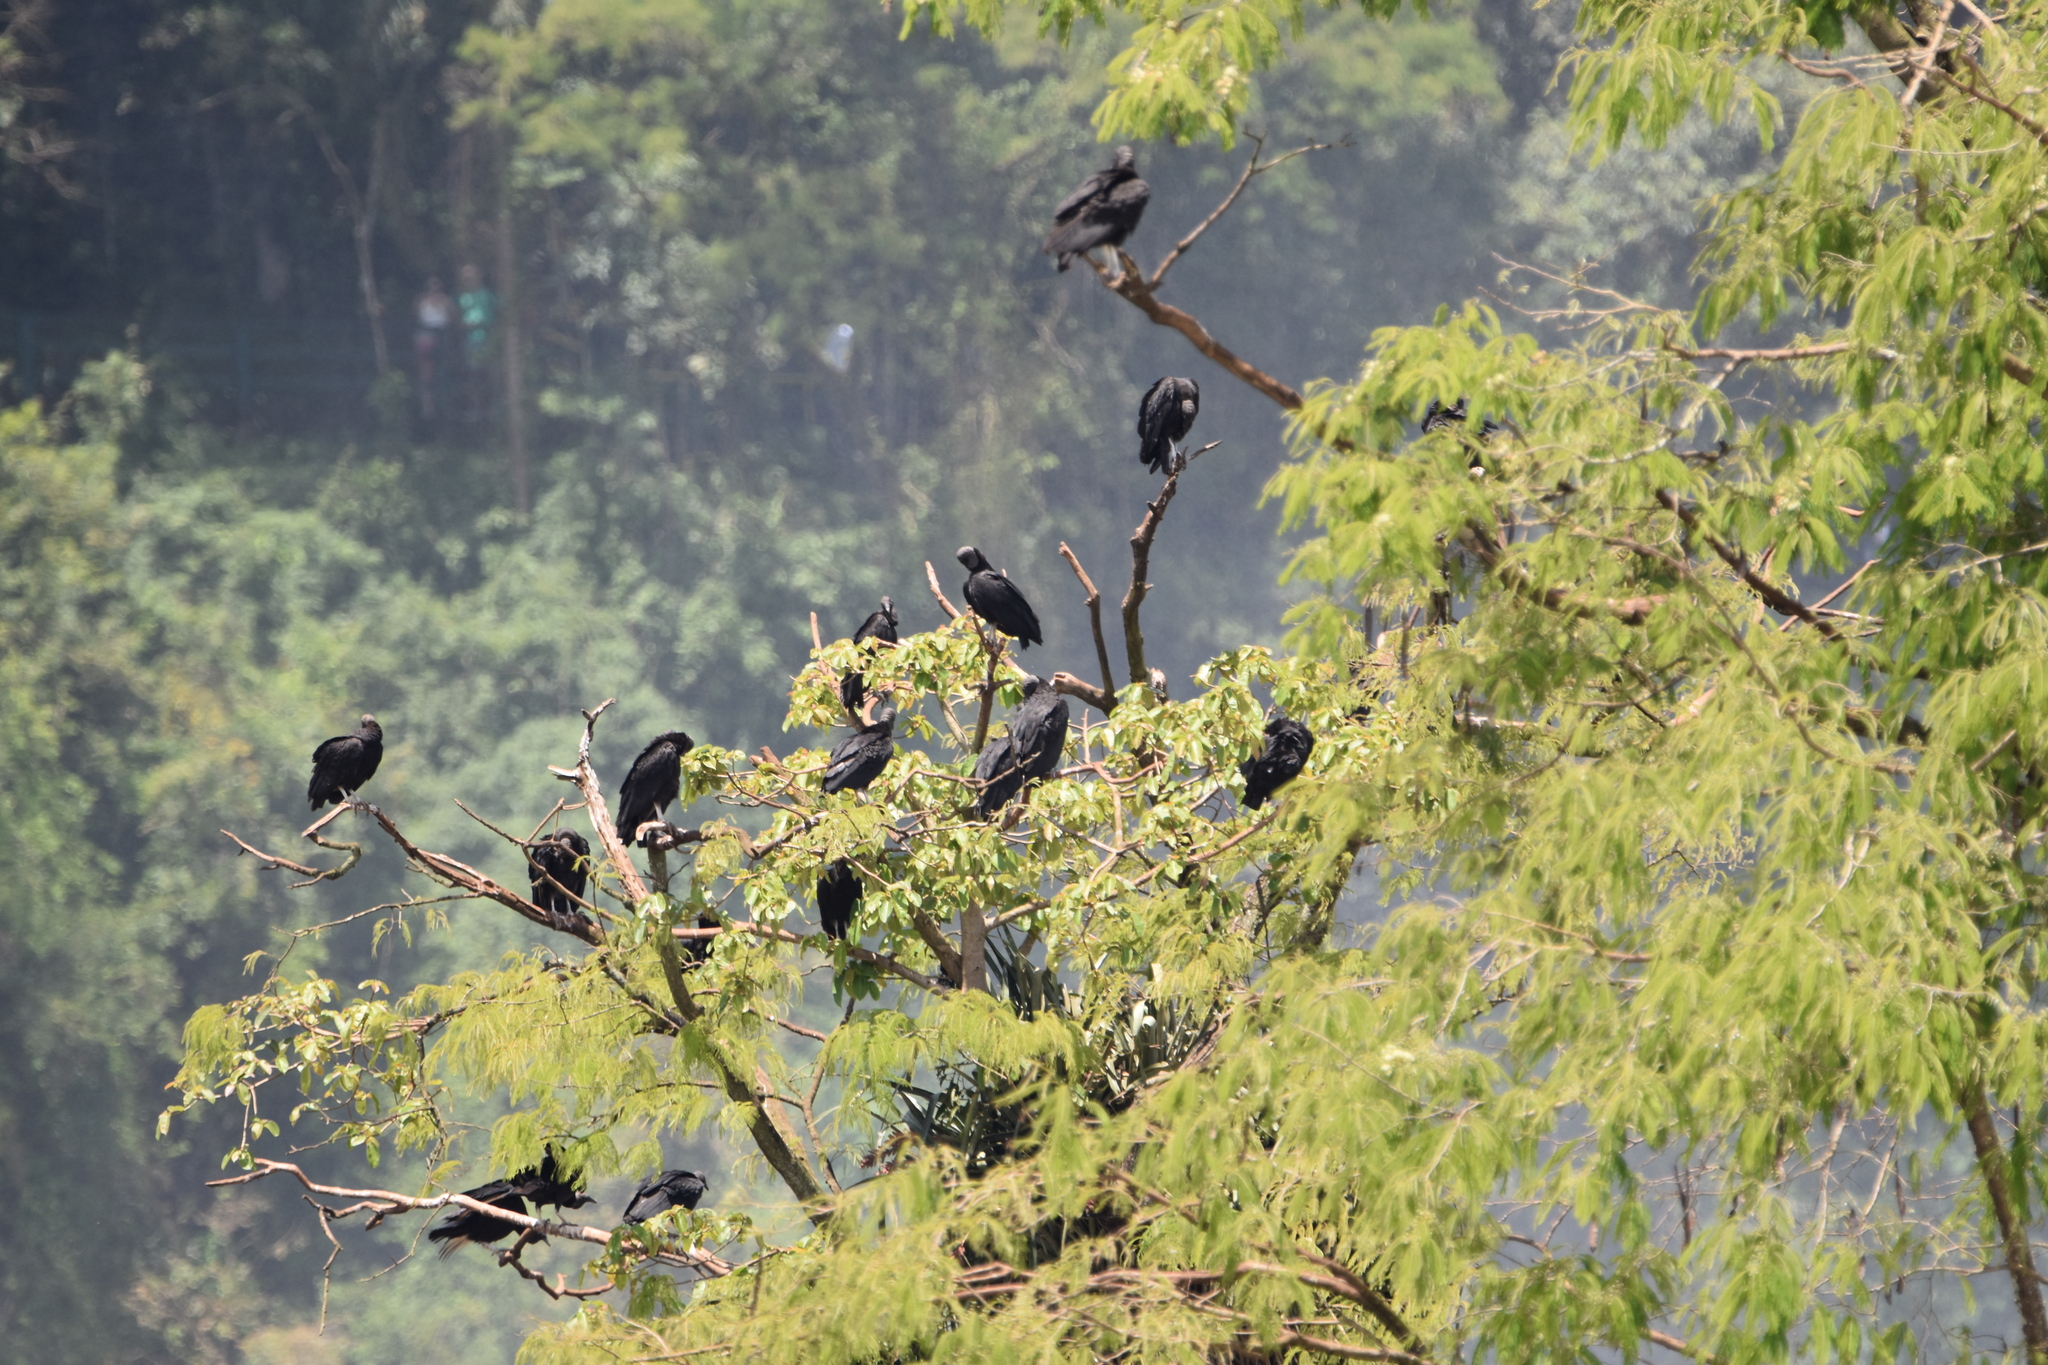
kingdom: Animalia
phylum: Chordata
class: Aves
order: Accipitriformes
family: Cathartidae
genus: Coragyps
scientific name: Coragyps atratus
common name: Black vulture
